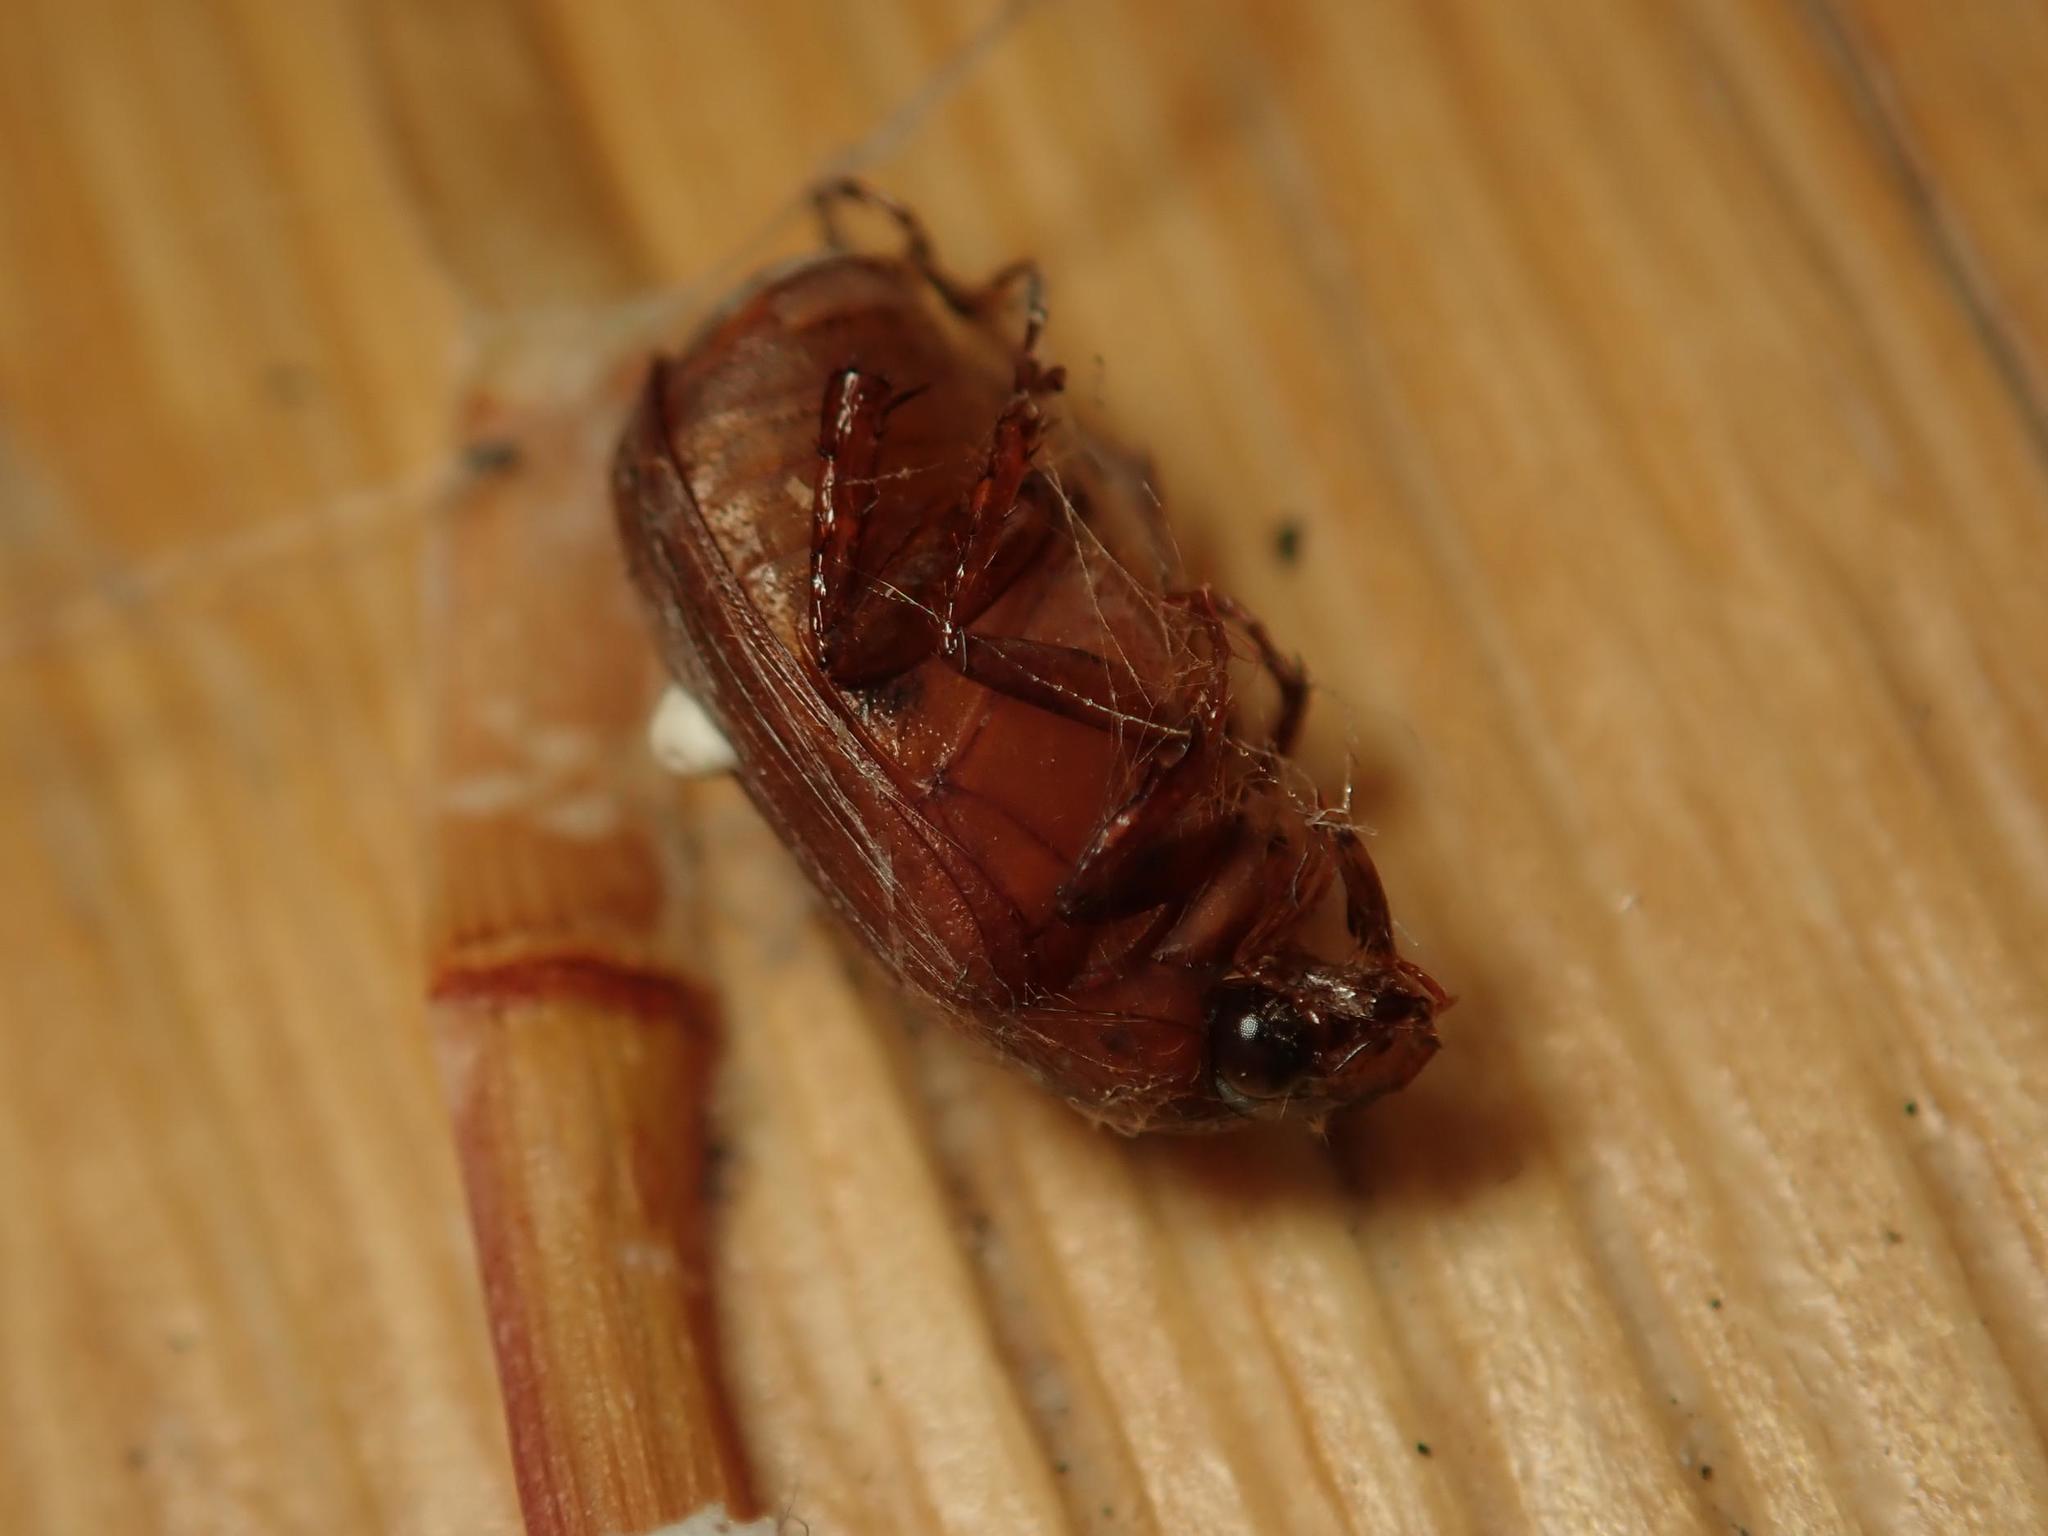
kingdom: Animalia
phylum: Arthropoda
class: Insecta
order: Coleoptera
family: Scarabaeidae
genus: Serica
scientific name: Serica brunnea
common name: Brown chafer
